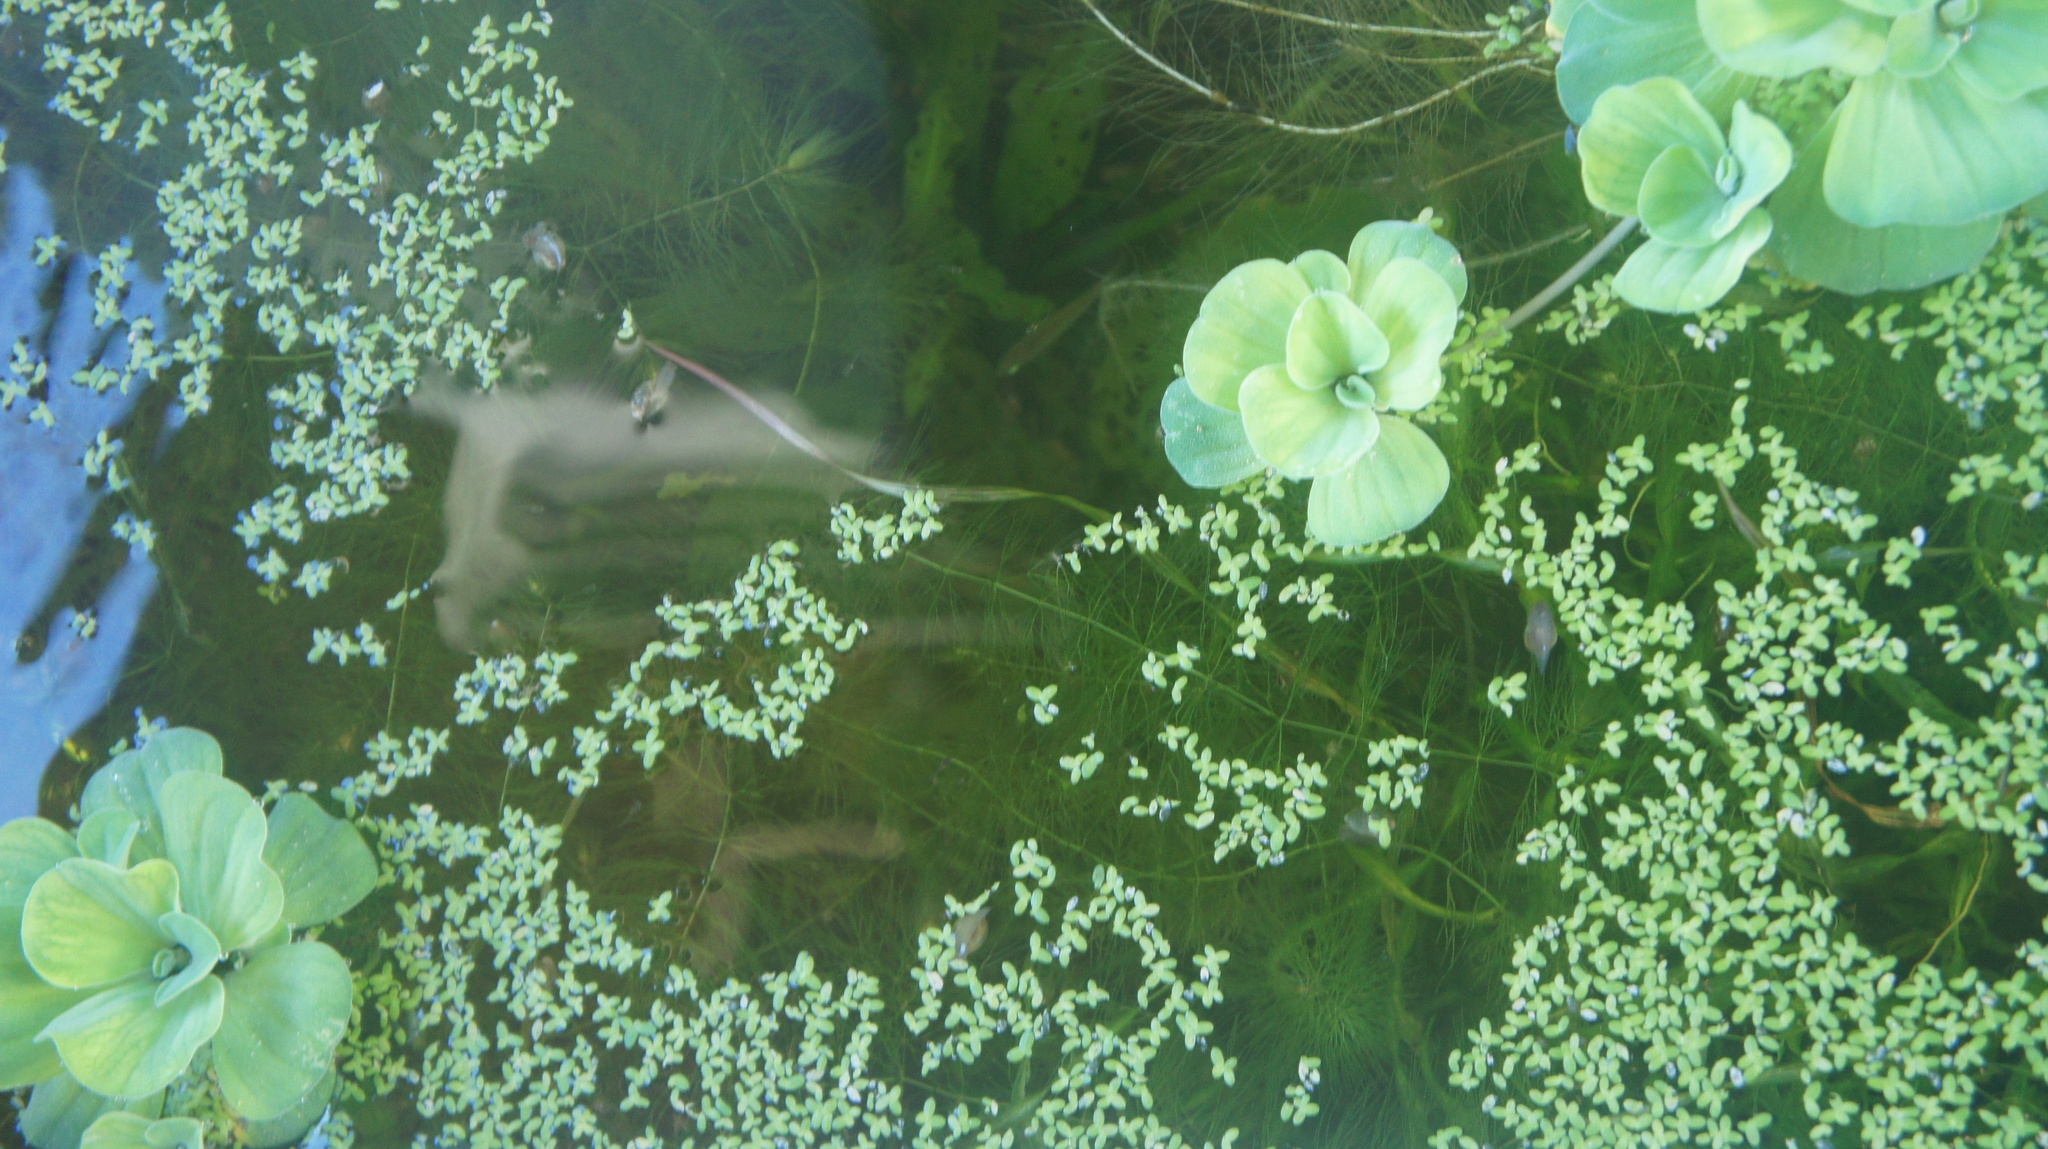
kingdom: Plantae
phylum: Tracheophyta
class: Liliopsida
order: Alismatales
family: Araceae
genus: Pistia
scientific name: Pistia stratiotes
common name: Water lettuce
